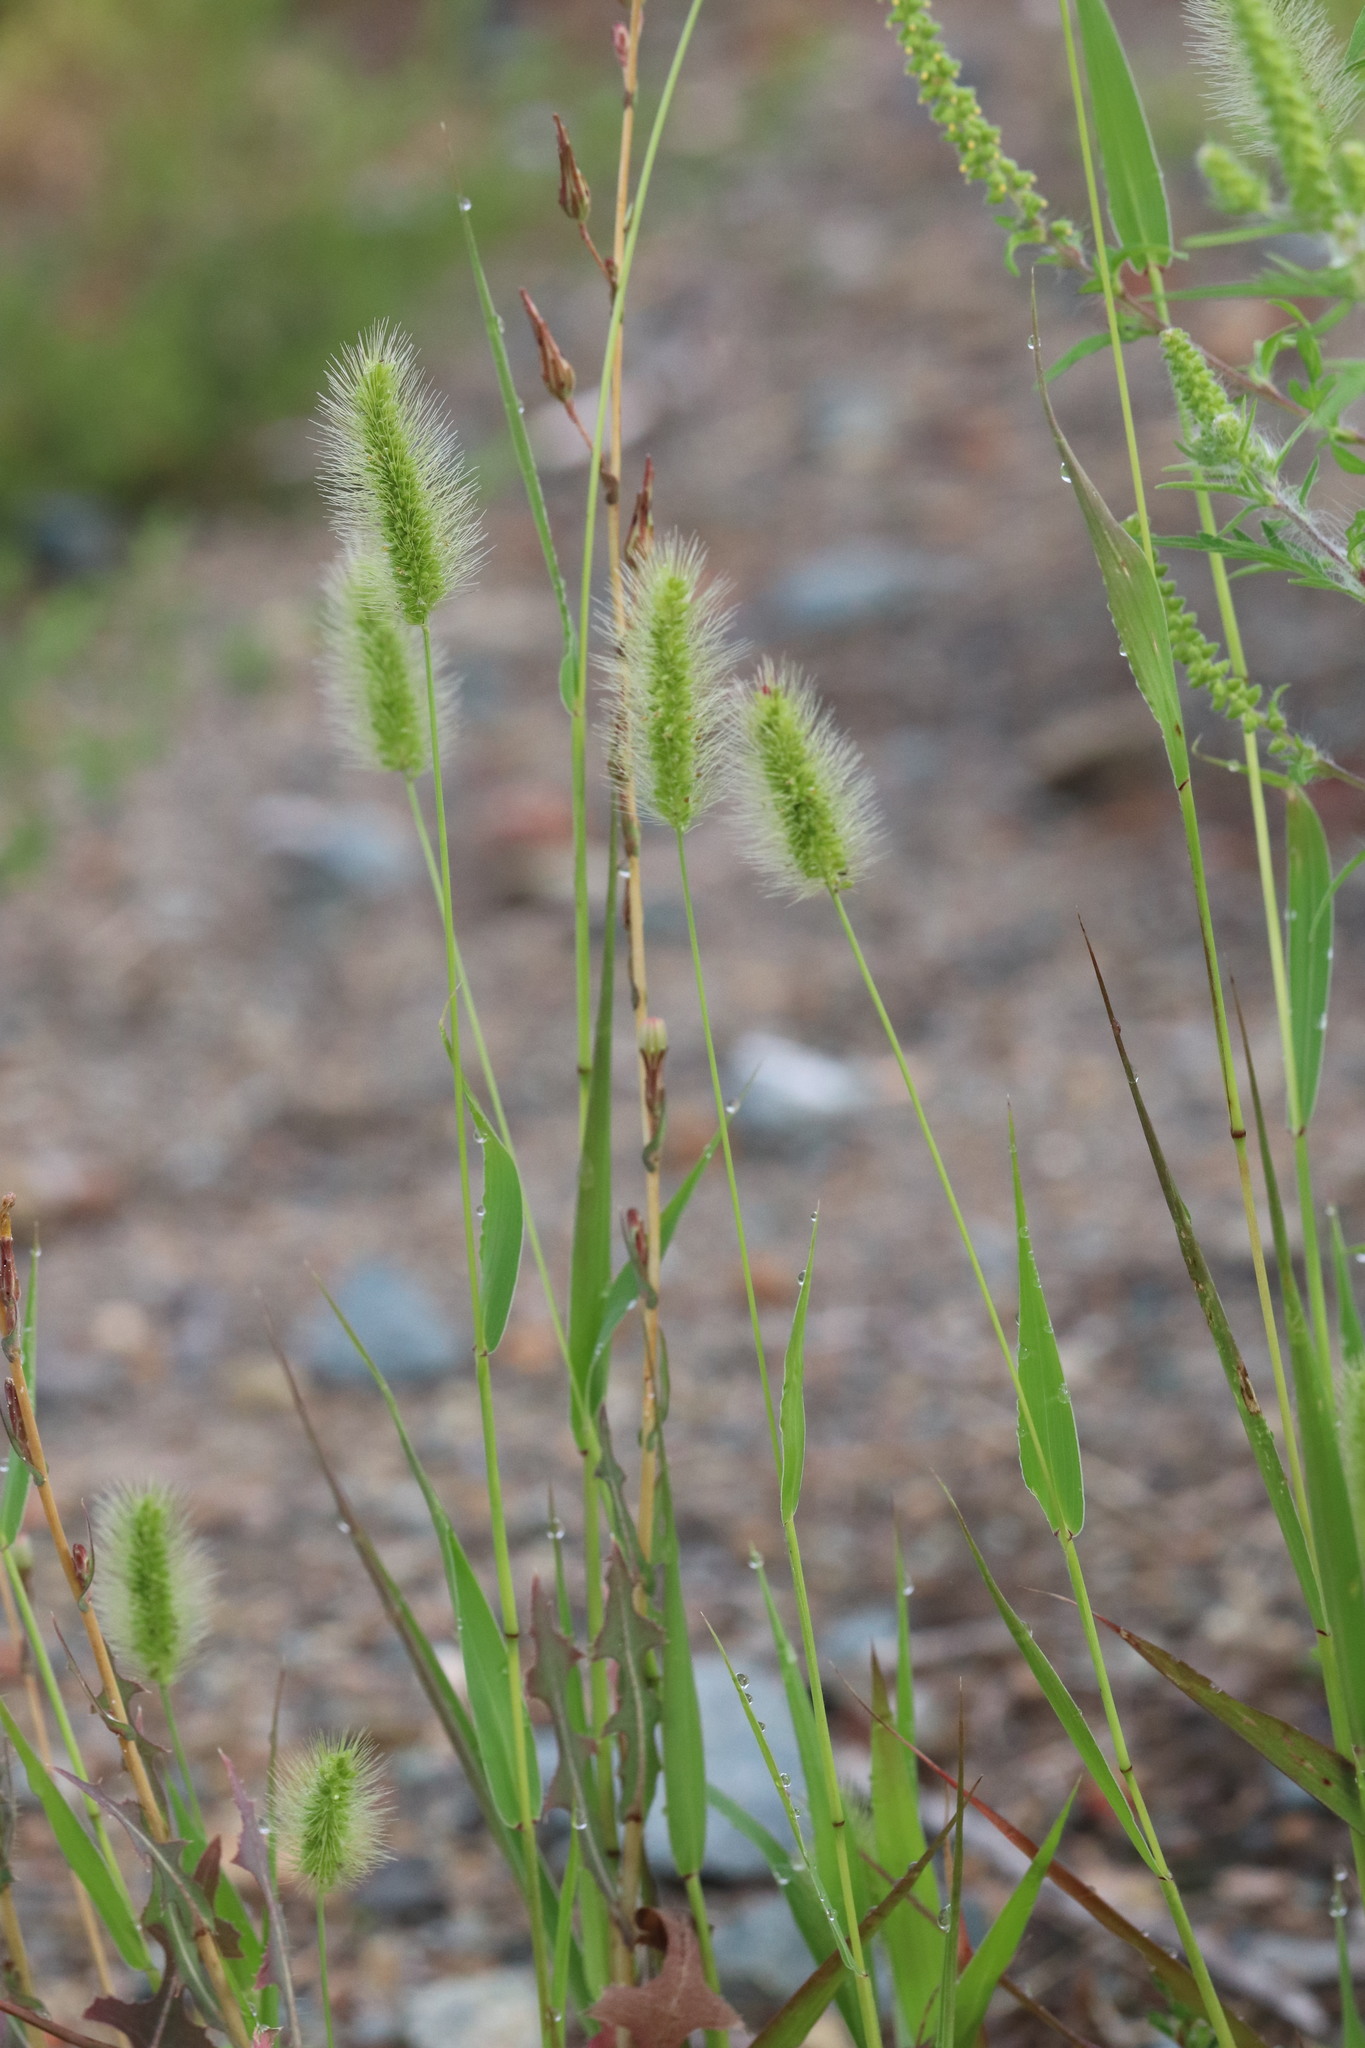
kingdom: Plantae
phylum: Tracheophyta
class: Liliopsida
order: Poales
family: Poaceae
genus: Setaria
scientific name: Setaria viridis
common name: Green bristlegrass
